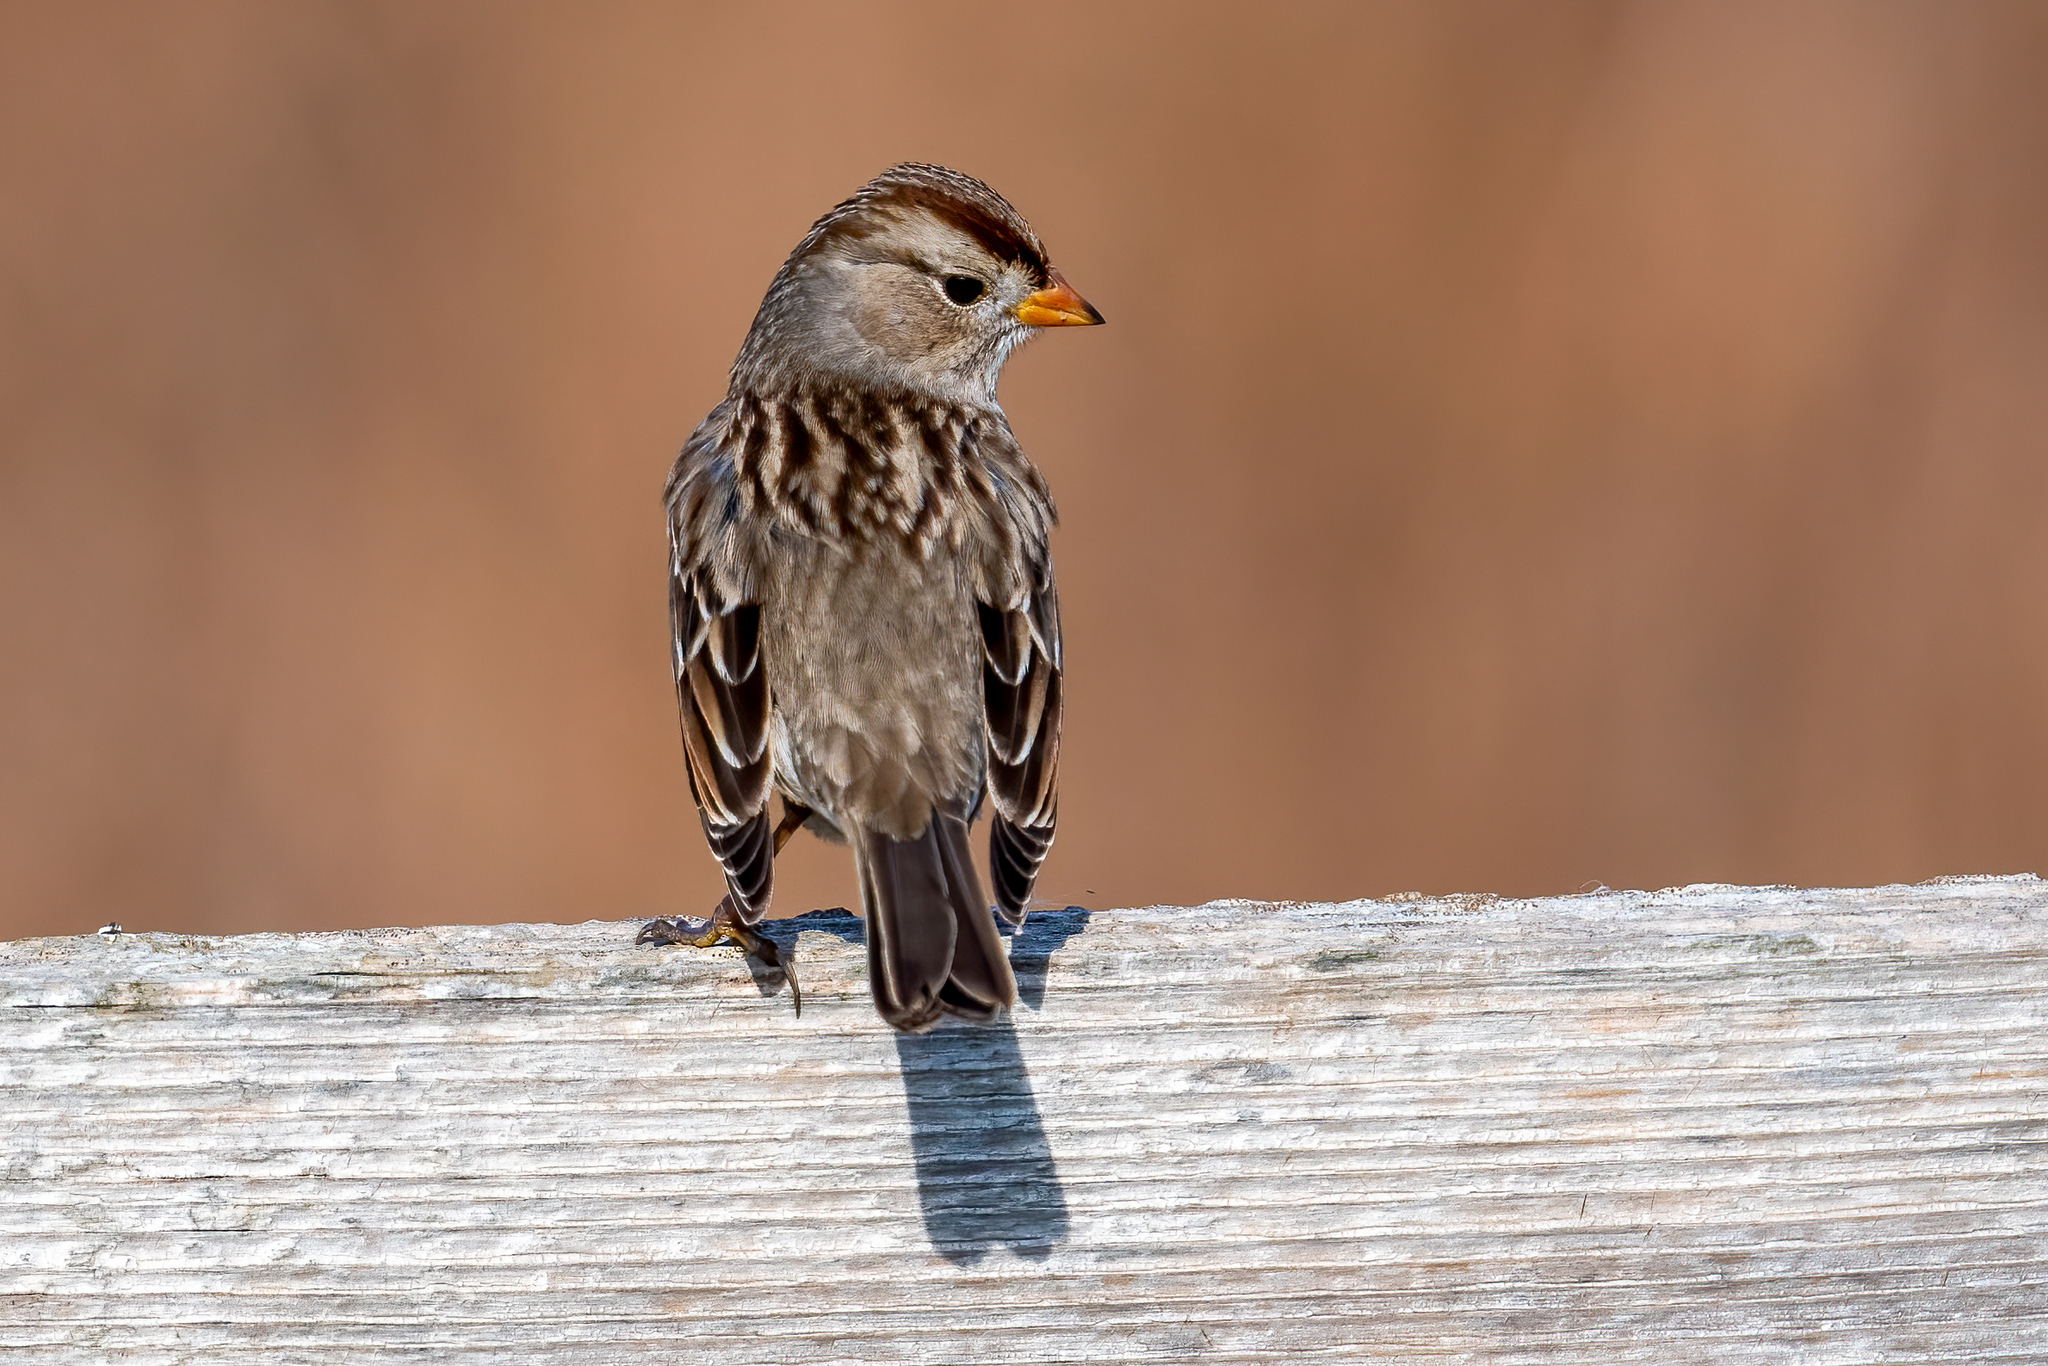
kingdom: Animalia
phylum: Chordata
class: Aves
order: Passeriformes
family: Passerellidae
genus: Zonotrichia
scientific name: Zonotrichia leucophrys
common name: White-crowned sparrow
